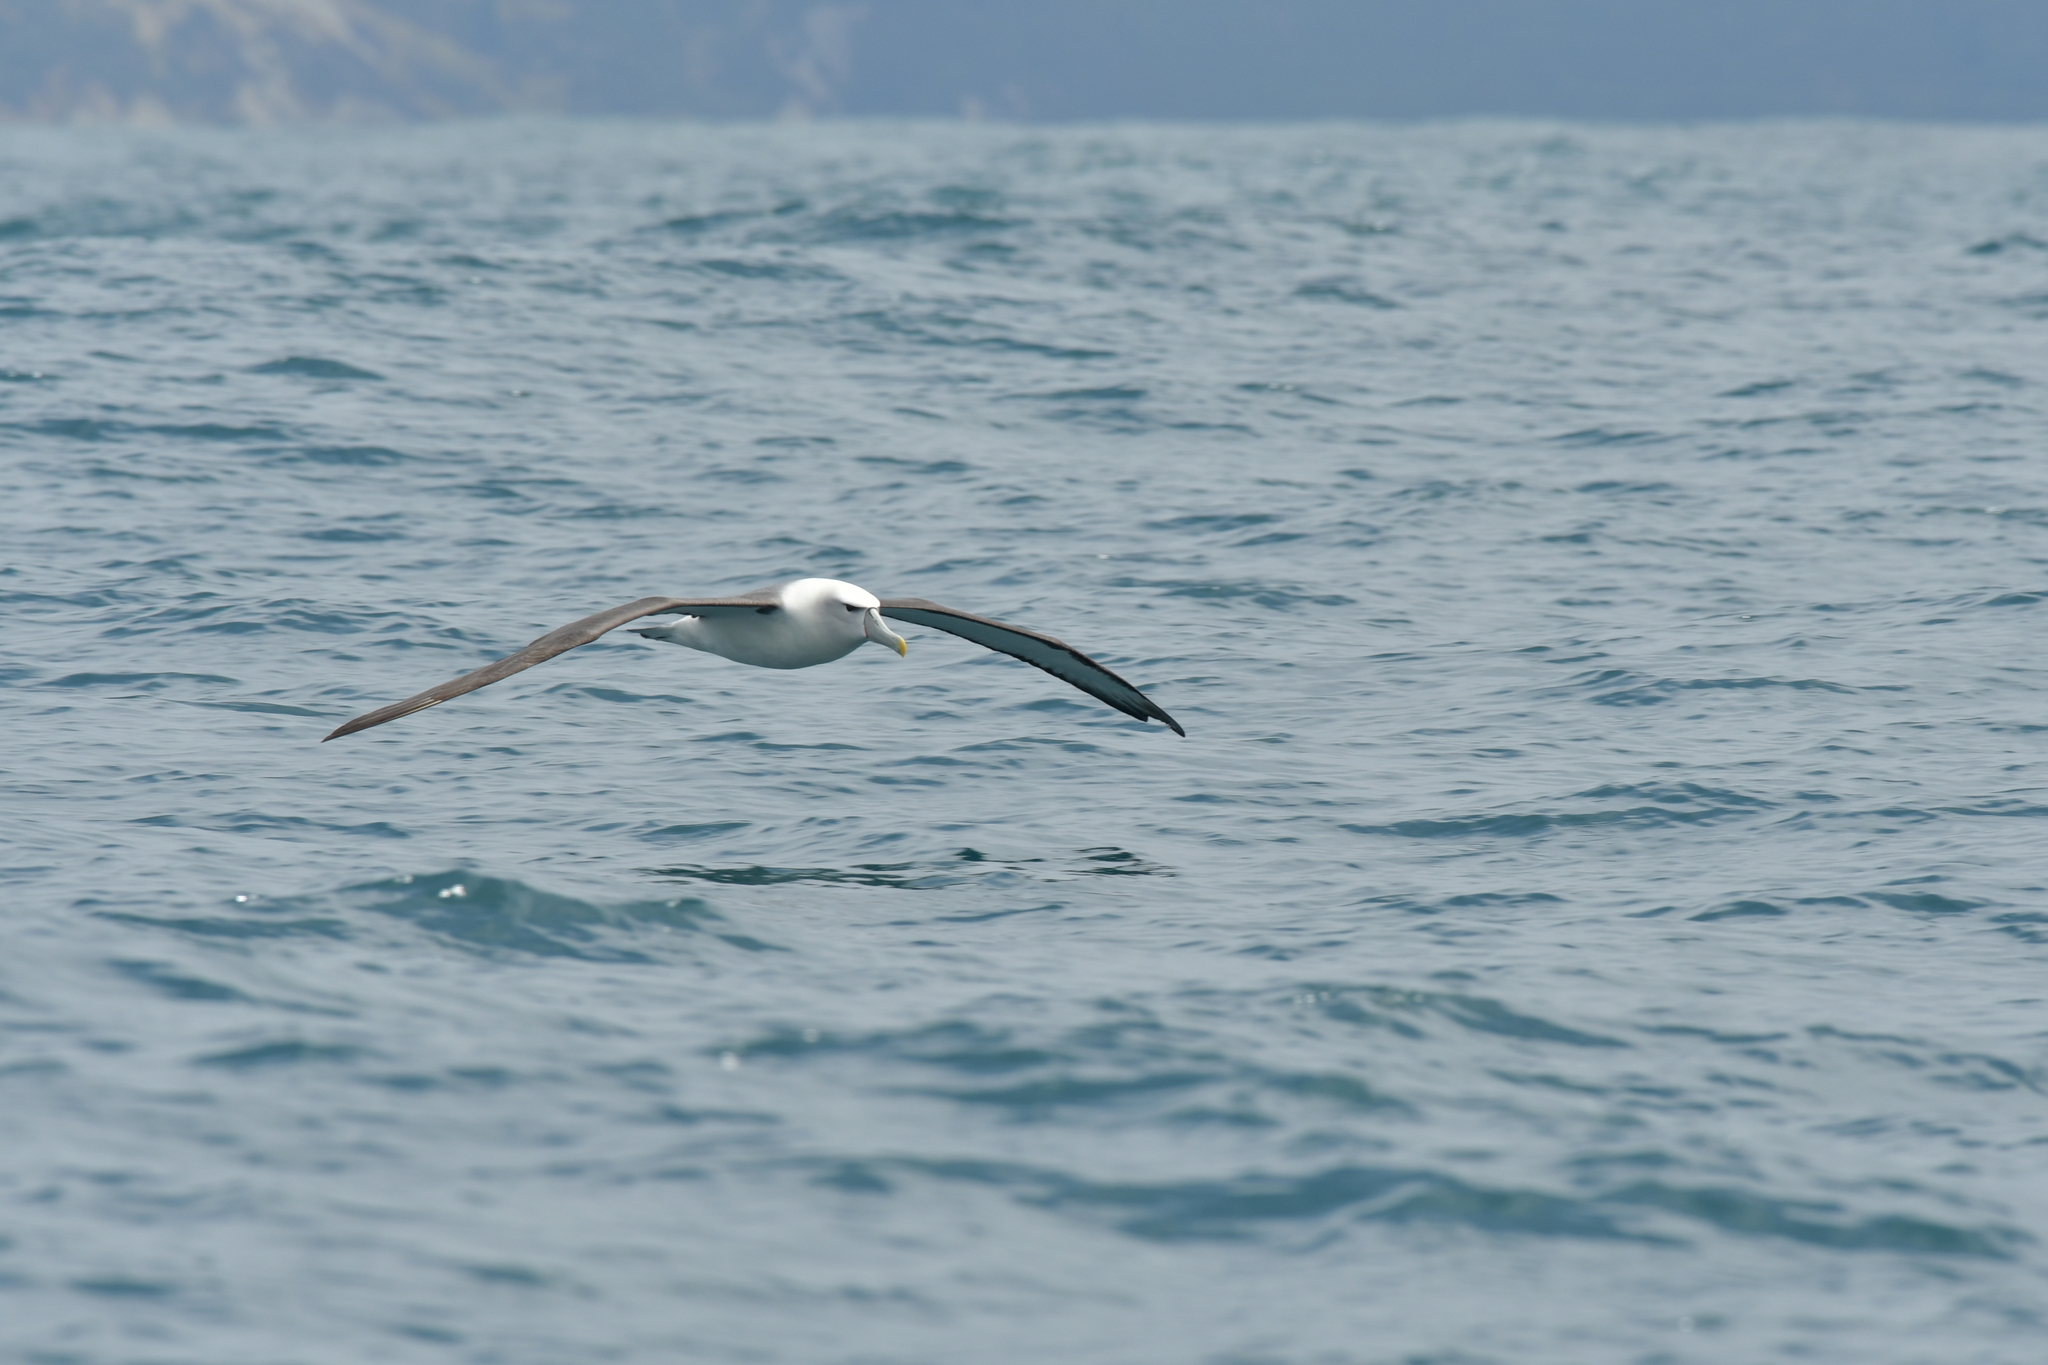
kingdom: Animalia
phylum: Chordata
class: Aves
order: Procellariiformes
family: Diomedeidae
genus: Thalassarche
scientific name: Thalassarche cauta
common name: Shy albatross
